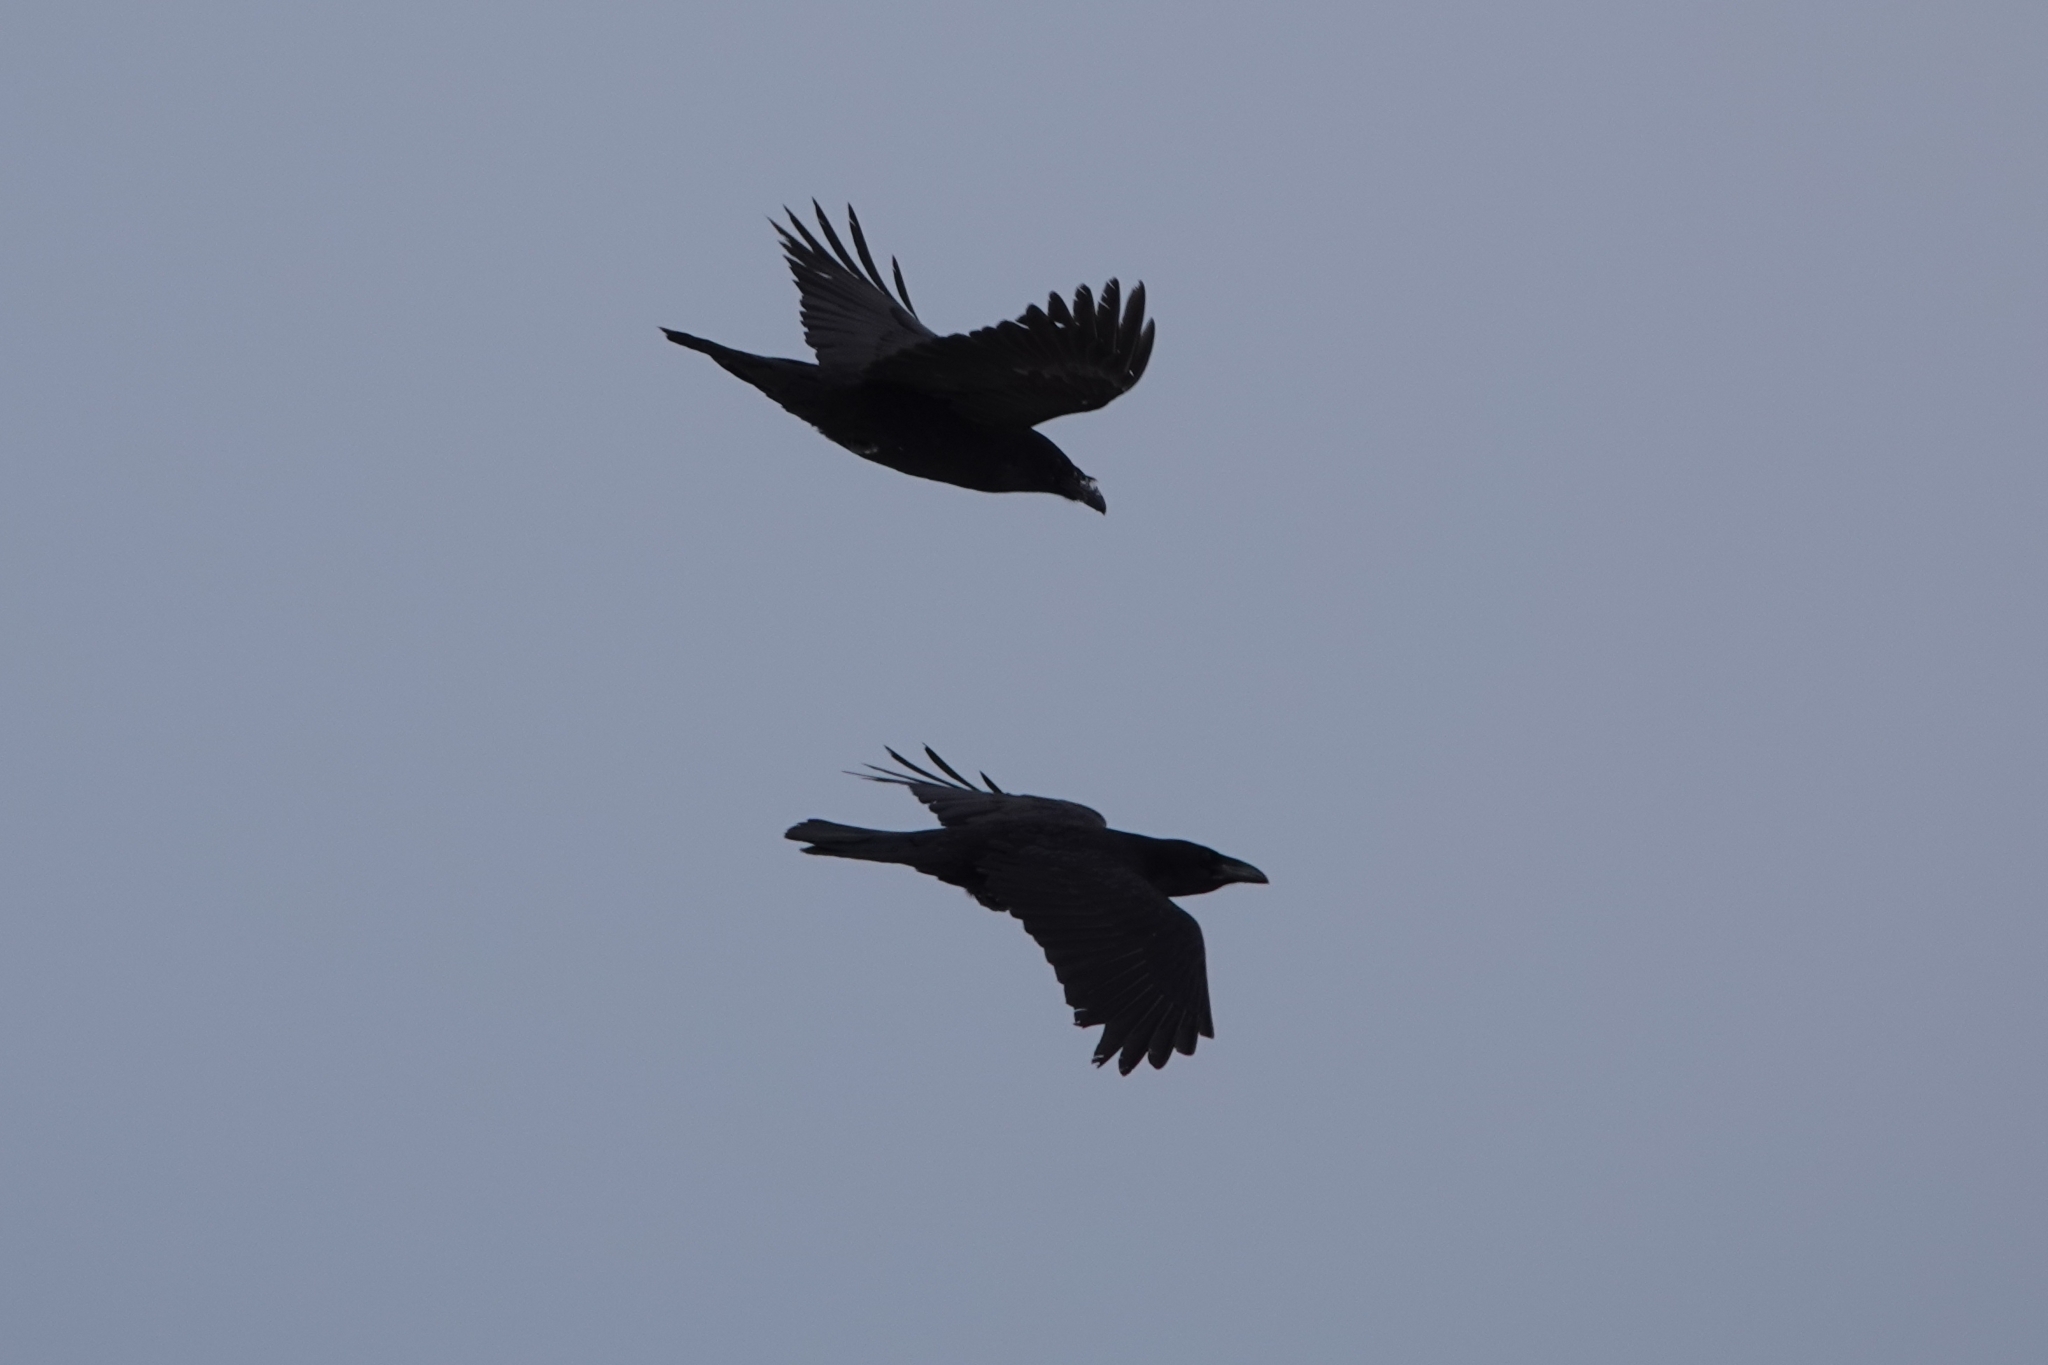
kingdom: Animalia
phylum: Chordata
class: Aves
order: Passeriformes
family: Corvidae
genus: Corvus
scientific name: Corvus corax
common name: Common raven
